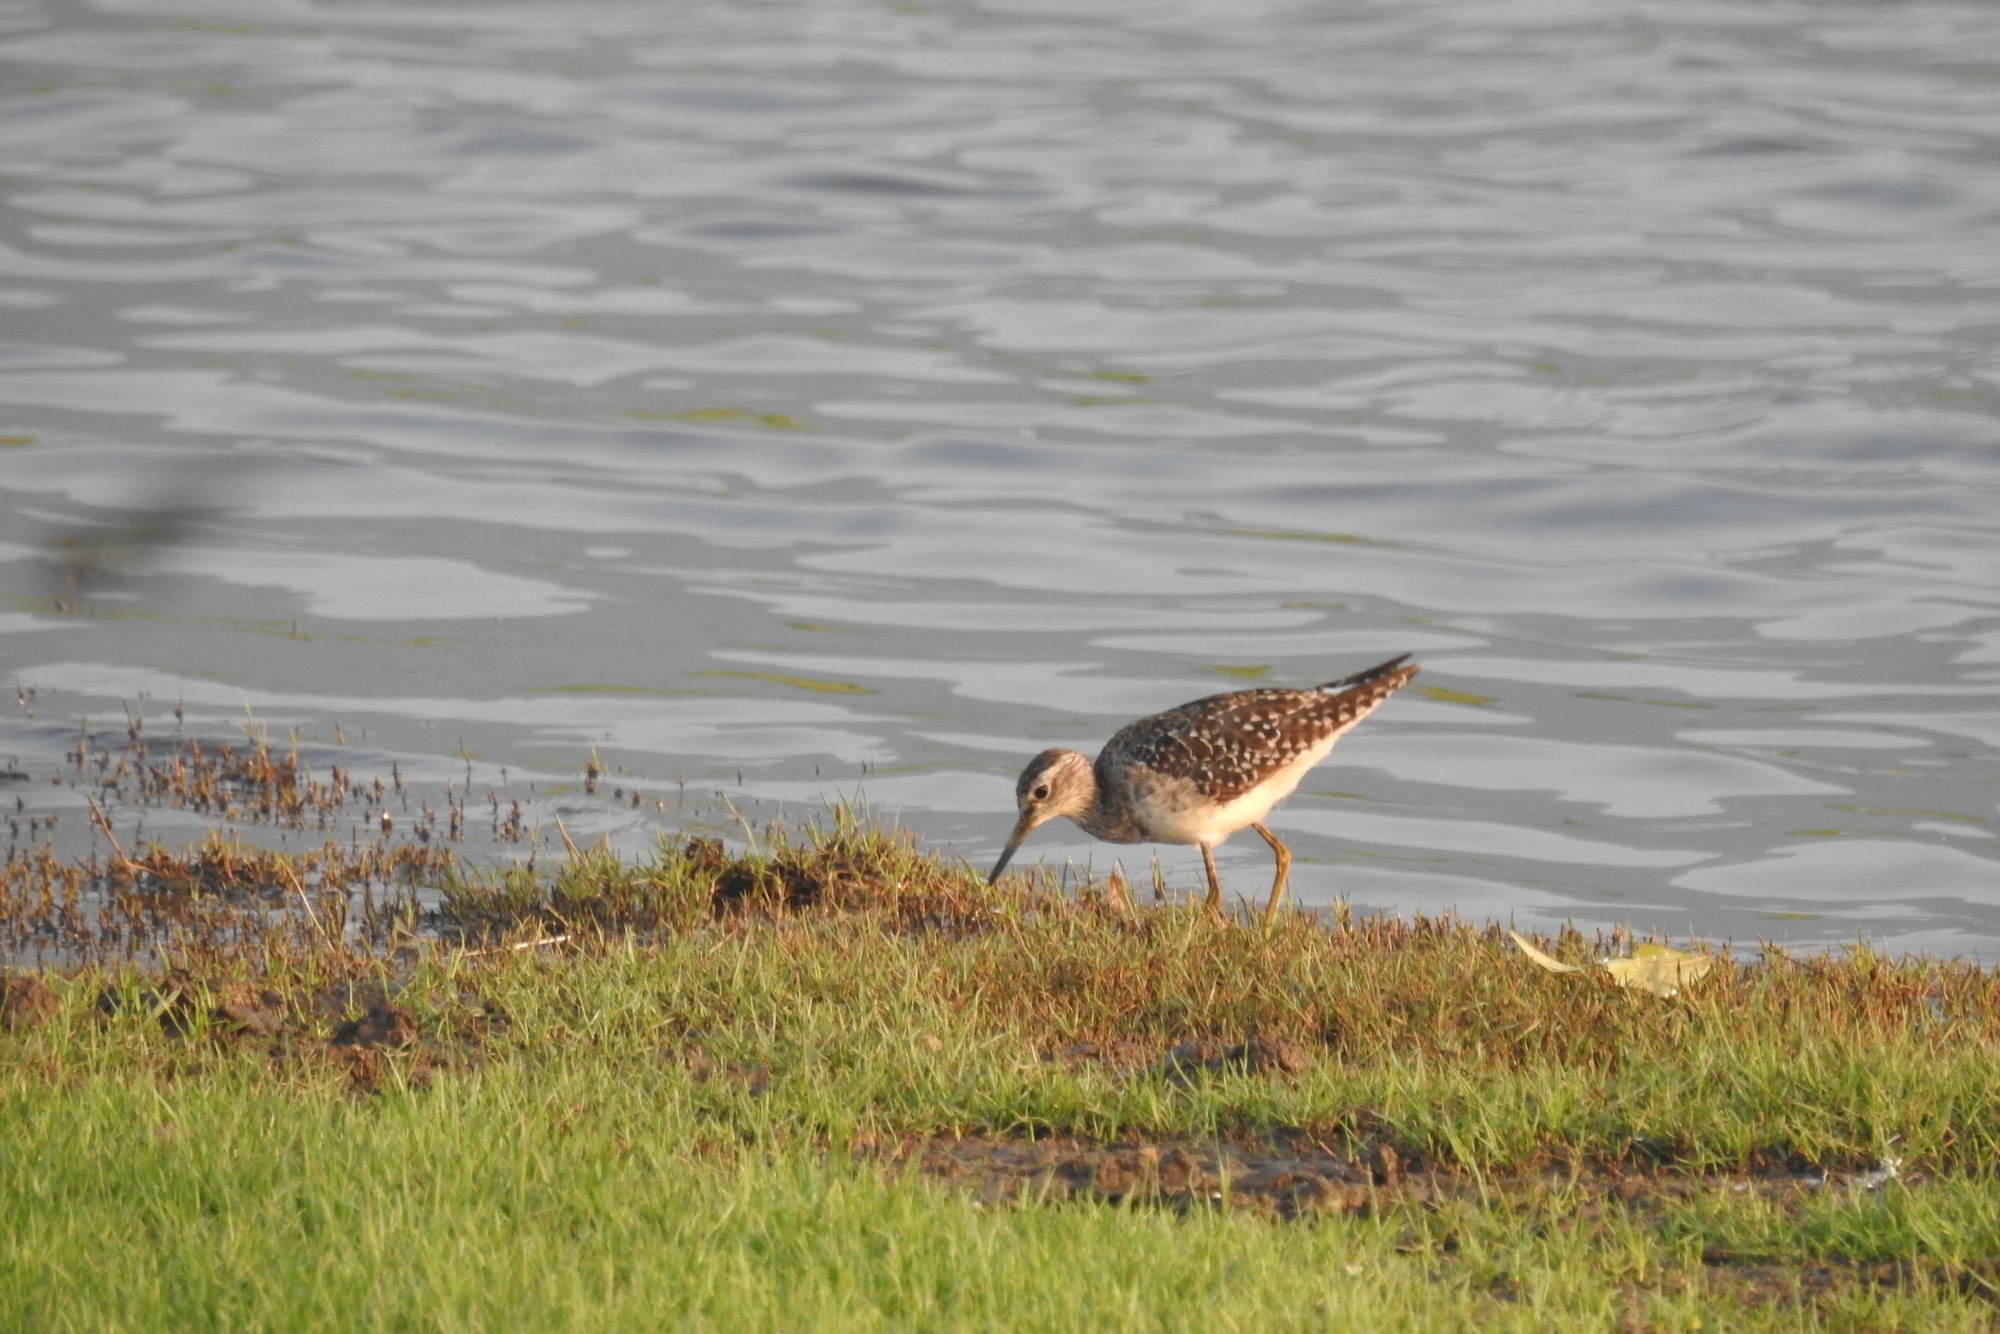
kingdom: Animalia
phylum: Chordata
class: Aves
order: Charadriiformes
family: Scolopacidae
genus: Tringa
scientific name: Tringa glareola
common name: Wood sandpiper
